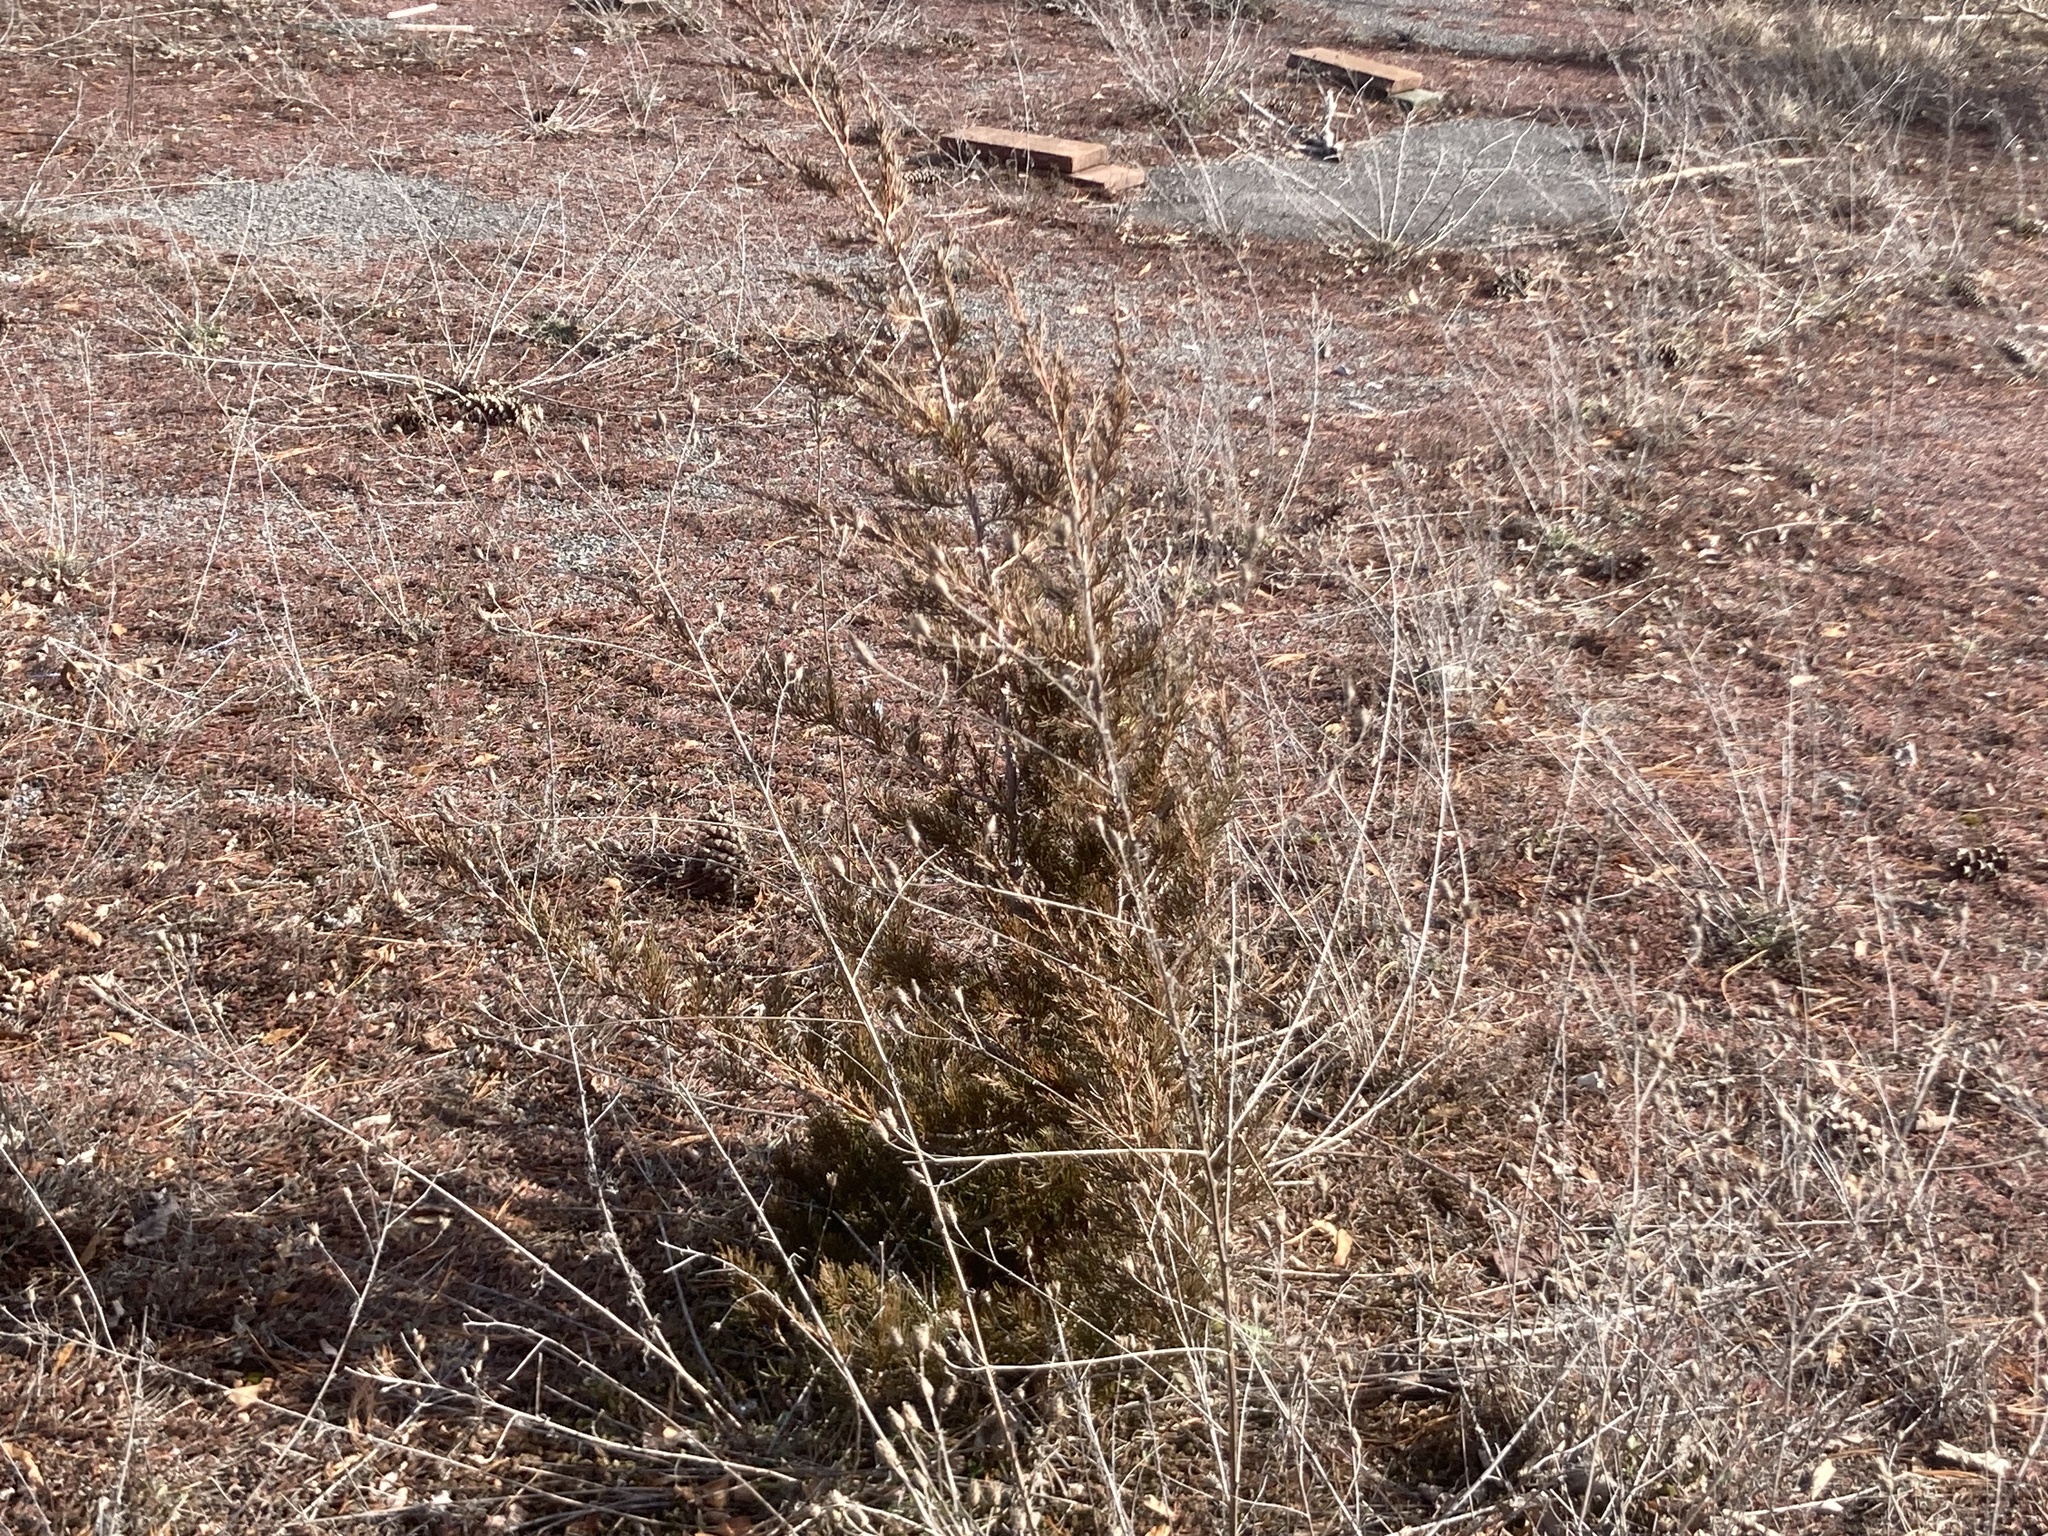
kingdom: Plantae
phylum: Tracheophyta
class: Pinopsida
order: Pinales
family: Cupressaceae
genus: Juniperus
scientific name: Juniperus virginiana
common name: Red juniper
